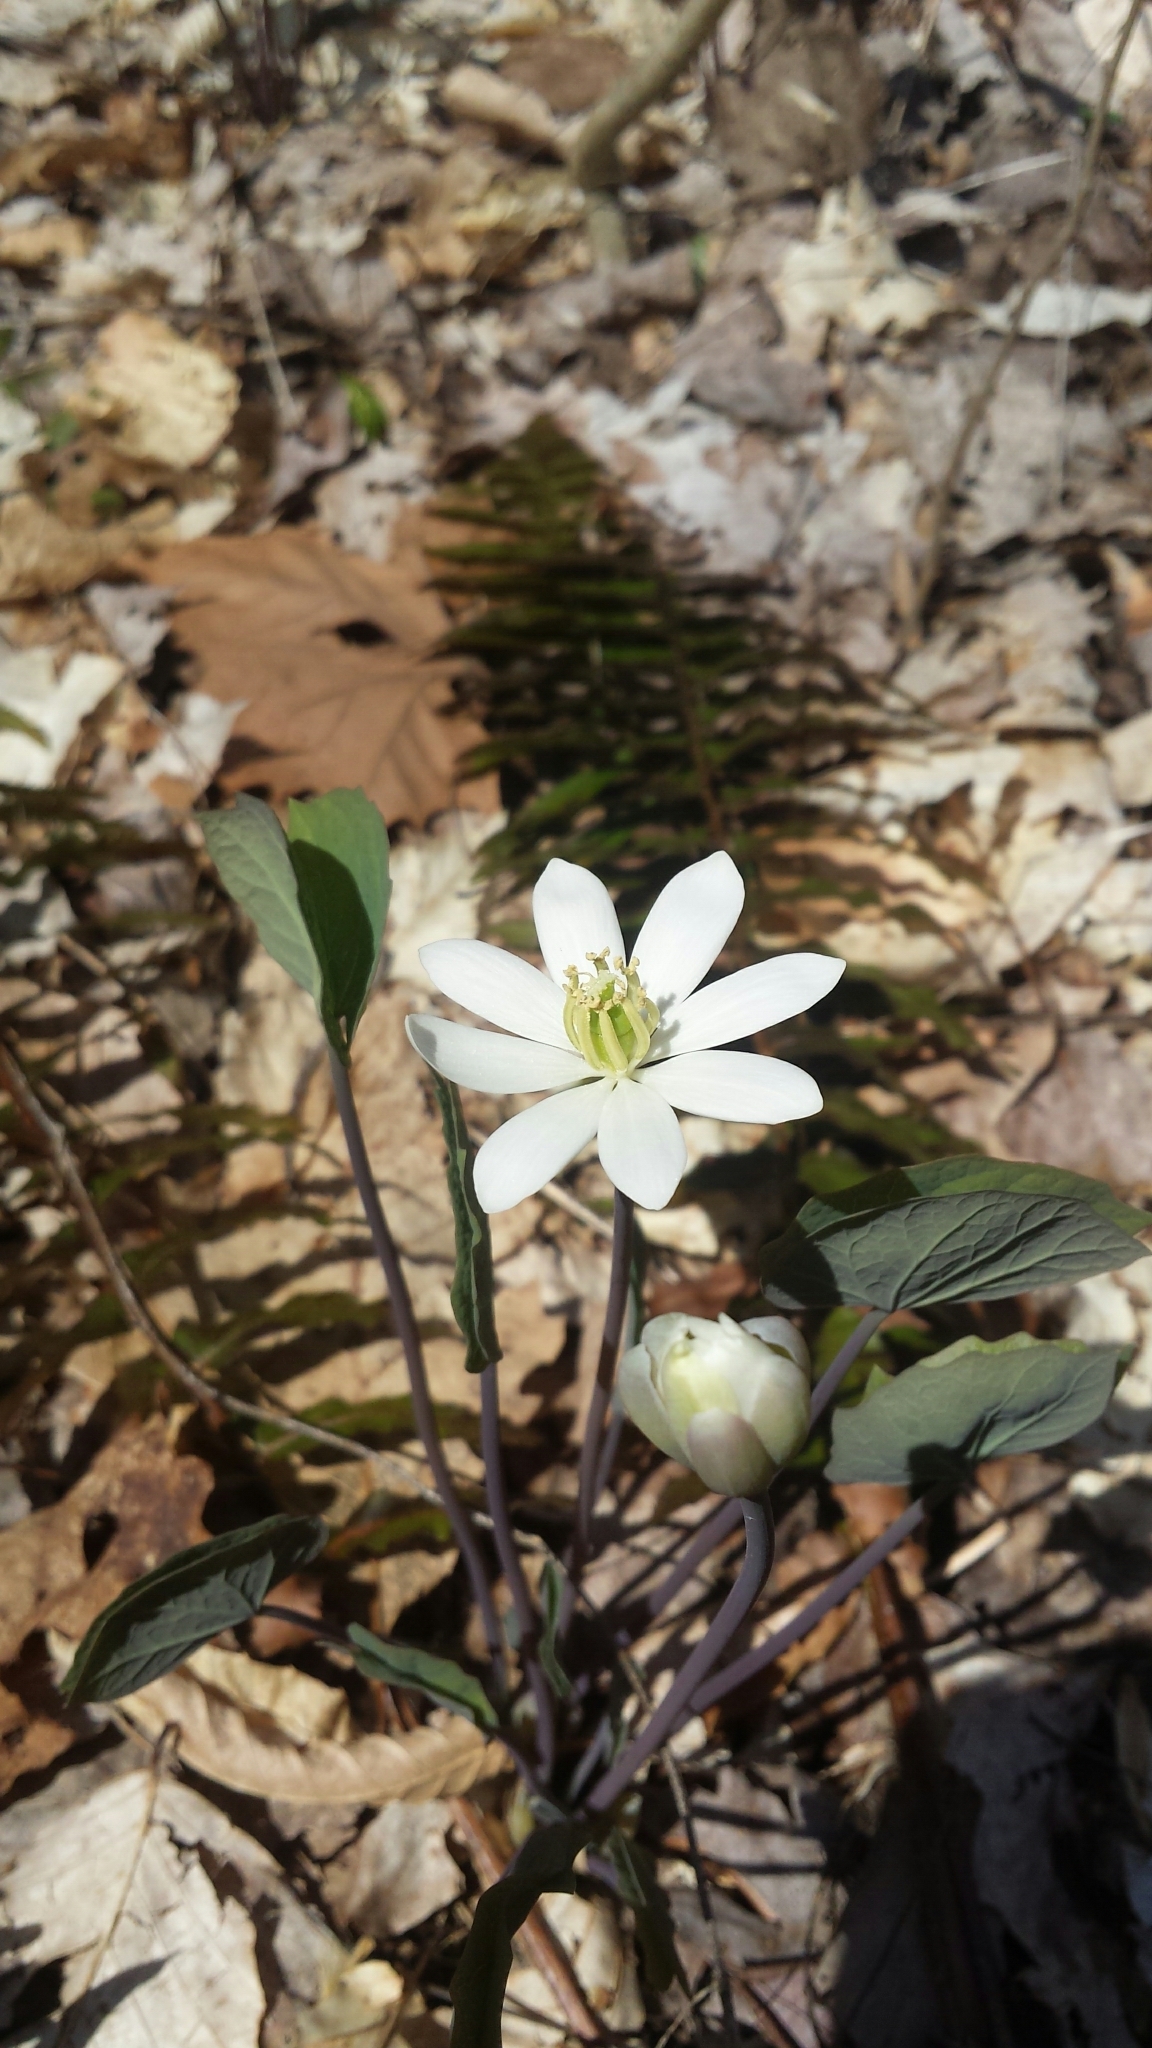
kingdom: Plantae
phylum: Tracheophyta
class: Magnoliopsida
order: Ranunculales
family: Berberidaceae
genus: Jeffersonia
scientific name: Jeffersonia diphylla
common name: Rheumatism-root
